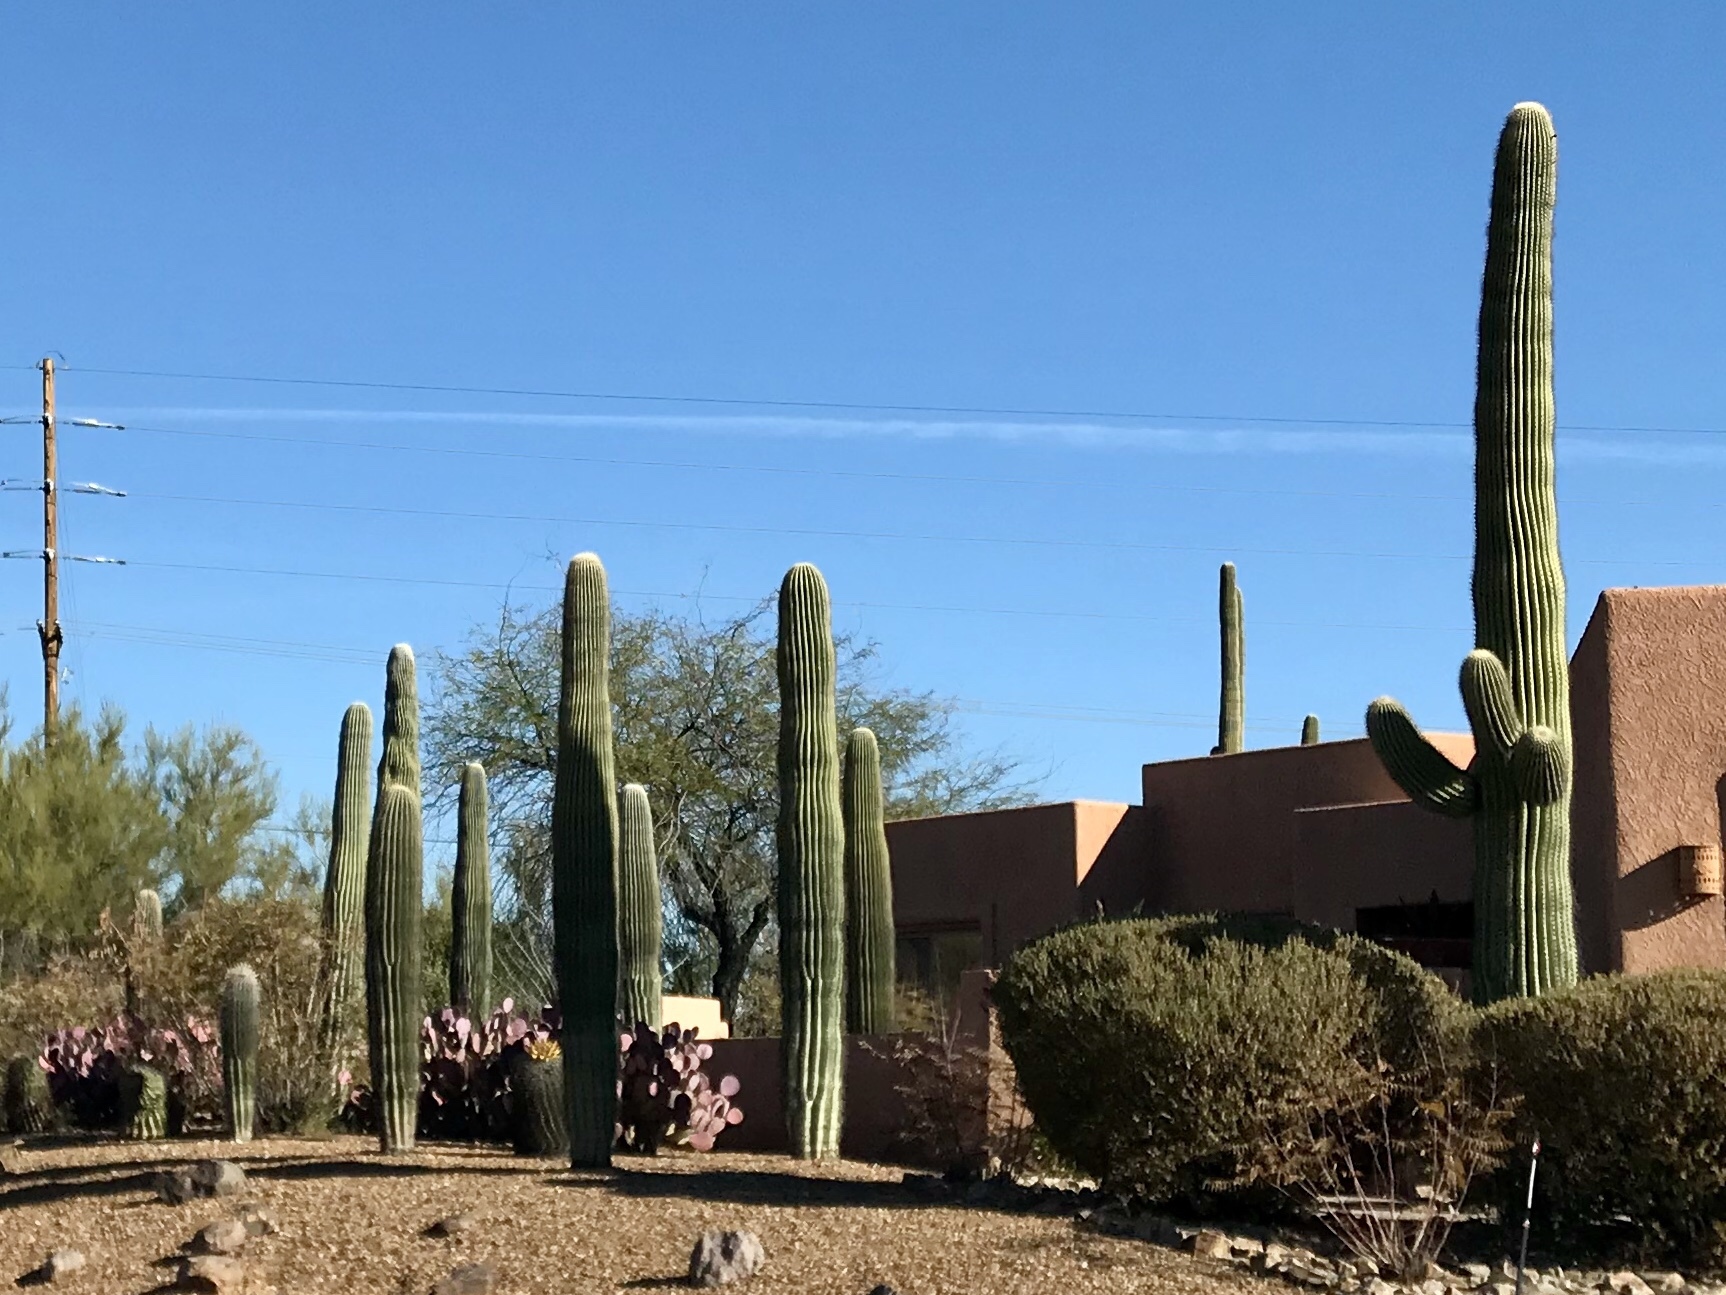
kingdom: Plantae
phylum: Tracheophyta
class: Magnoliopsida
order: Caryophyllales
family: Cactaceae
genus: Carnegiea
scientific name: Carnegiea gigantea
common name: Saguaro
